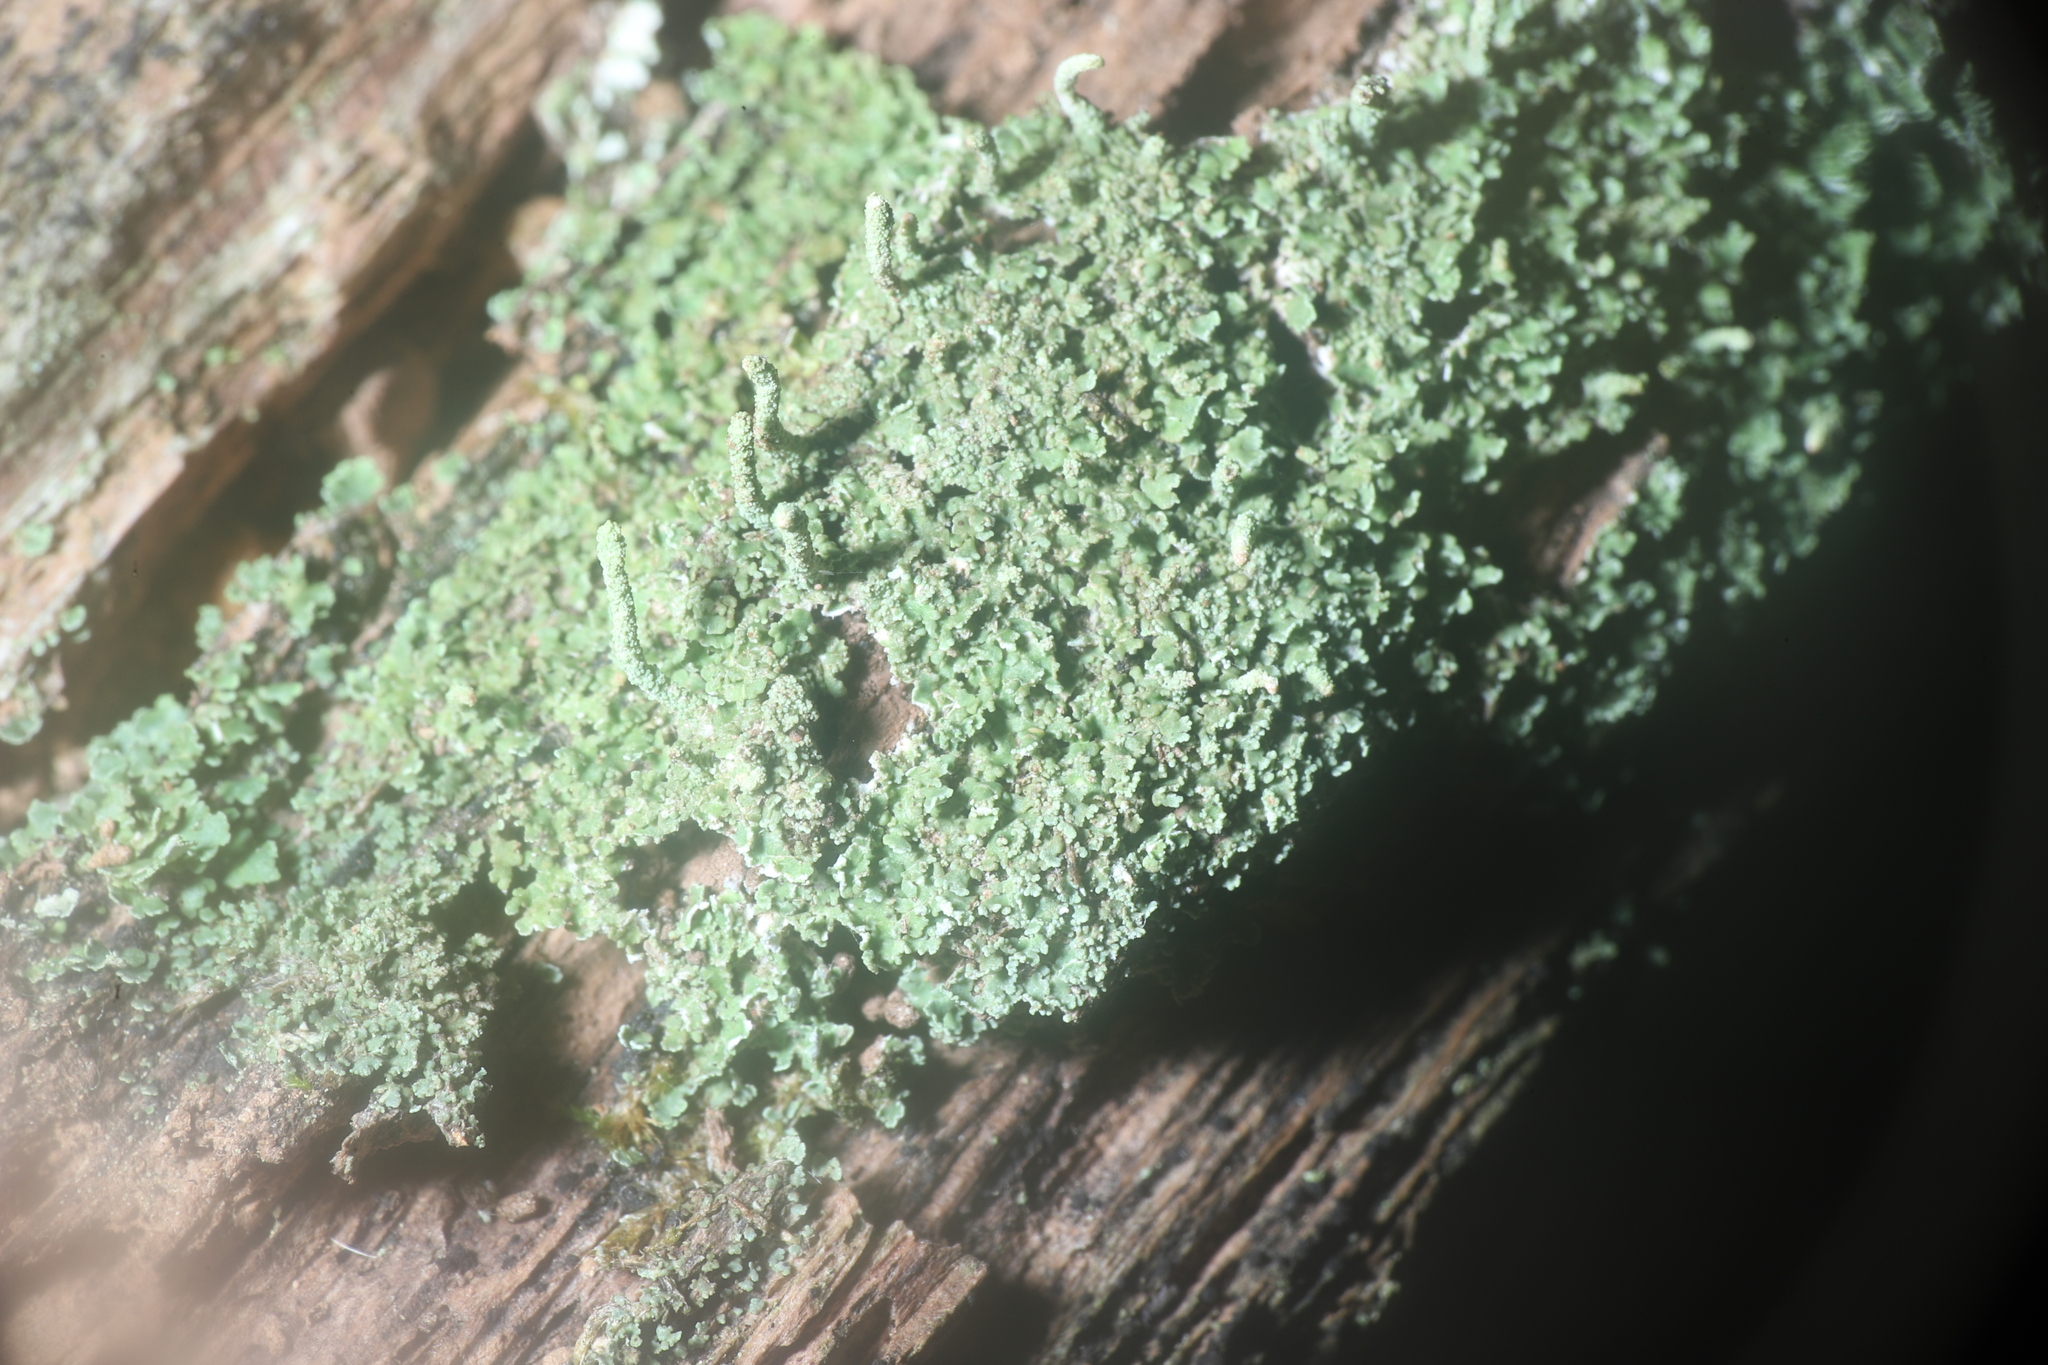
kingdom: Fungi
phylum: Ascomycota
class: Lecanoromycetes
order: Lecanorales
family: Cladoniaceae
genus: Cladonia
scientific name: Cladonia coniocraea
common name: Common powderhorn
